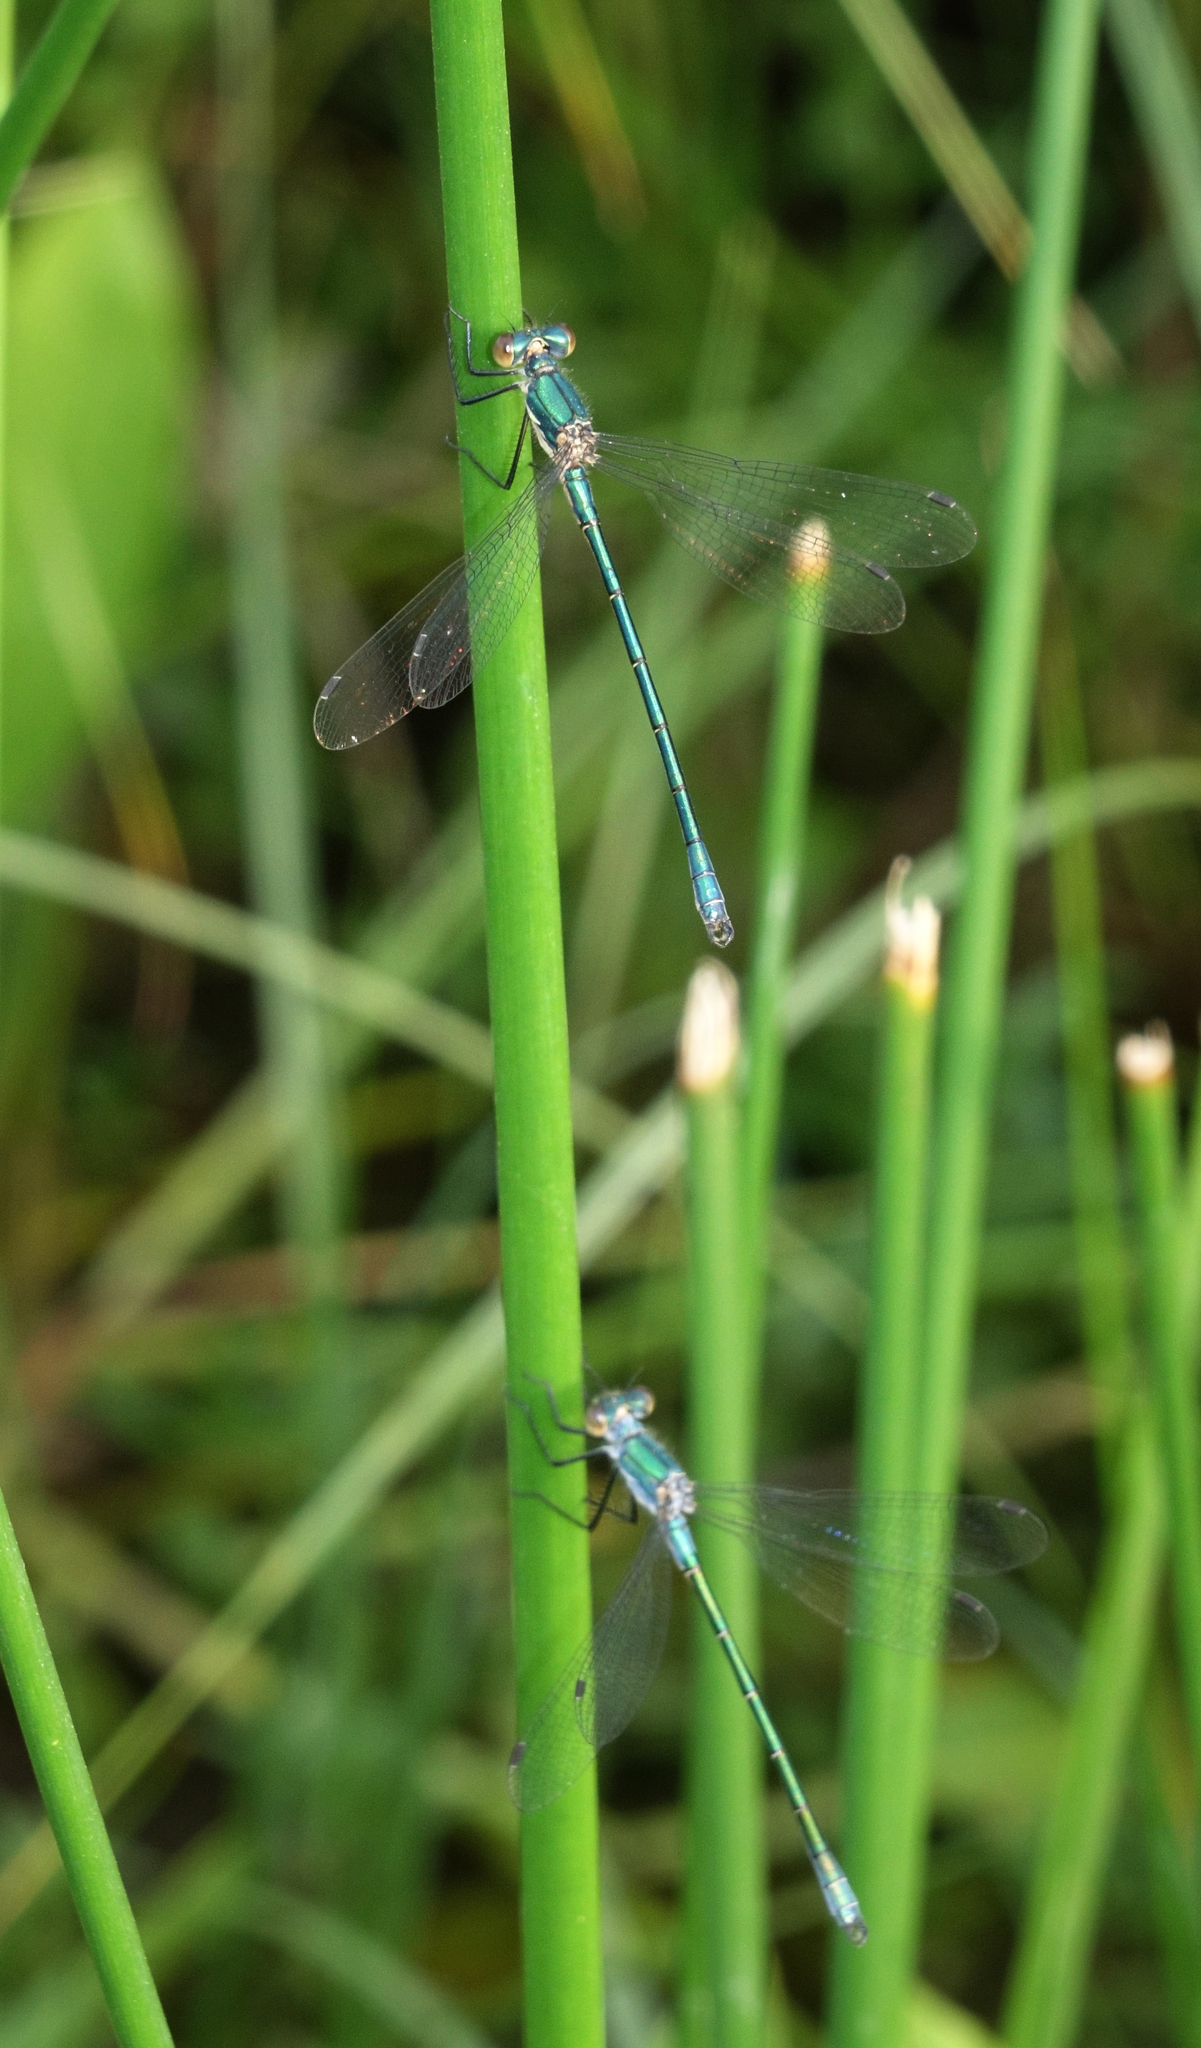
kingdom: Animalia
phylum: Arthropoda
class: Insecta
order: Odonata
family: Lestidae
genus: Lestes
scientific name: Lestes dryas
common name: Scarce emerald damselfly
